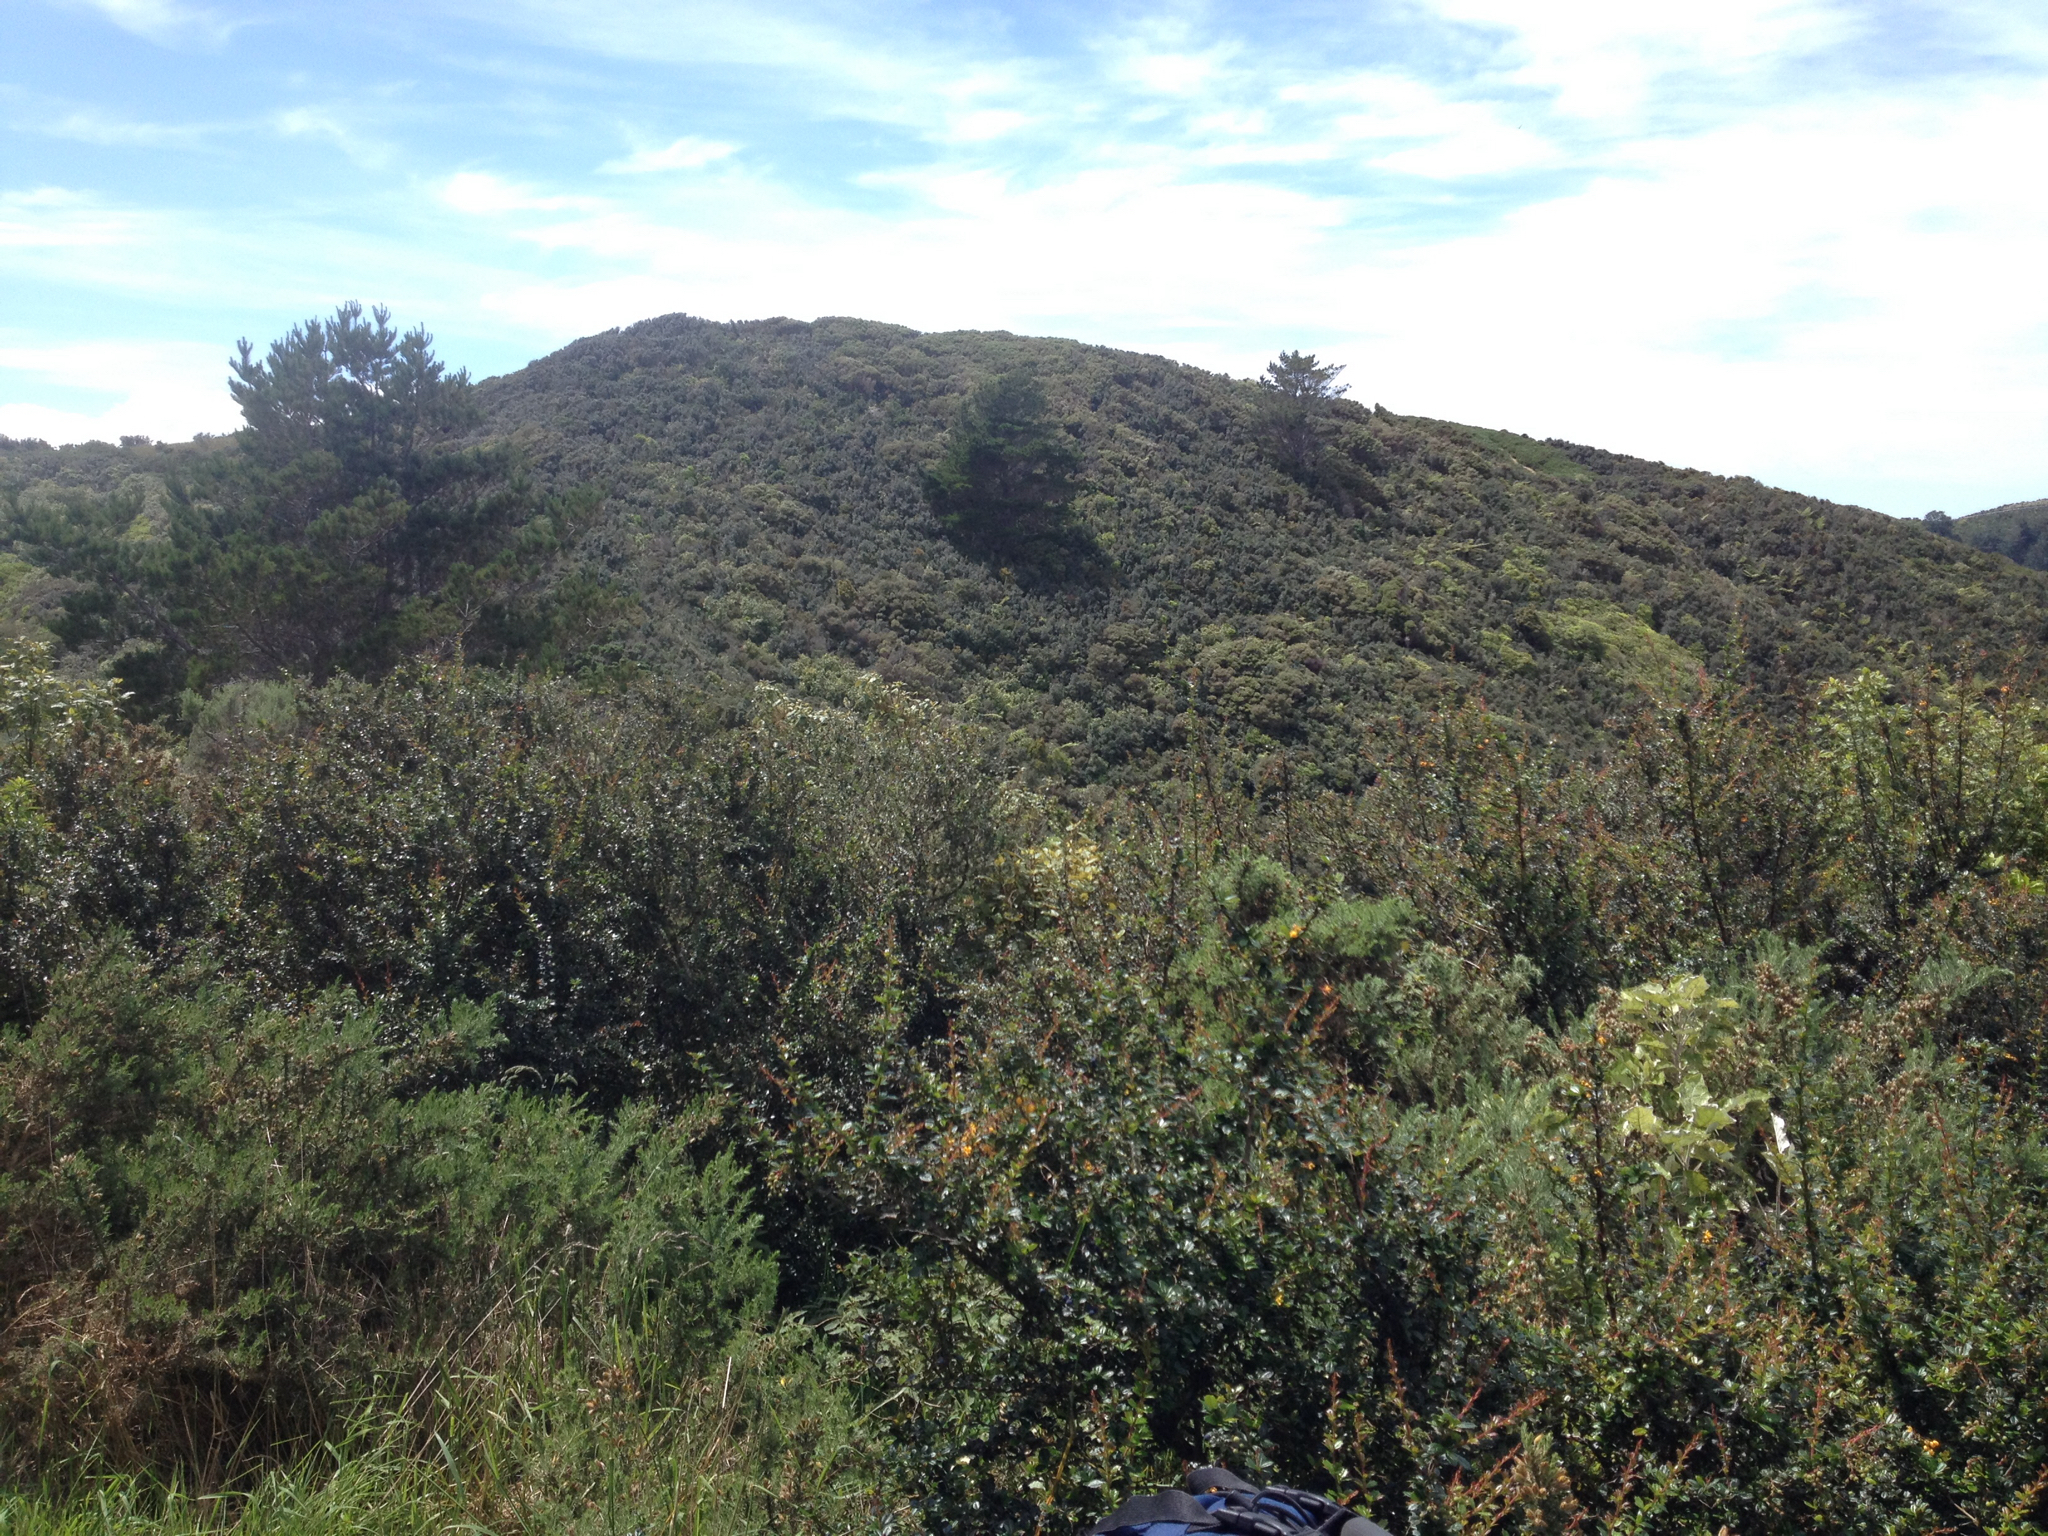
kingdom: Plantae
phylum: Tracheophyta
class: Magnoliopsida
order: Ranunculales
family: Berberidaceae
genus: Berberis
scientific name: Berberis darwinii
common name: Darwin's barberry
